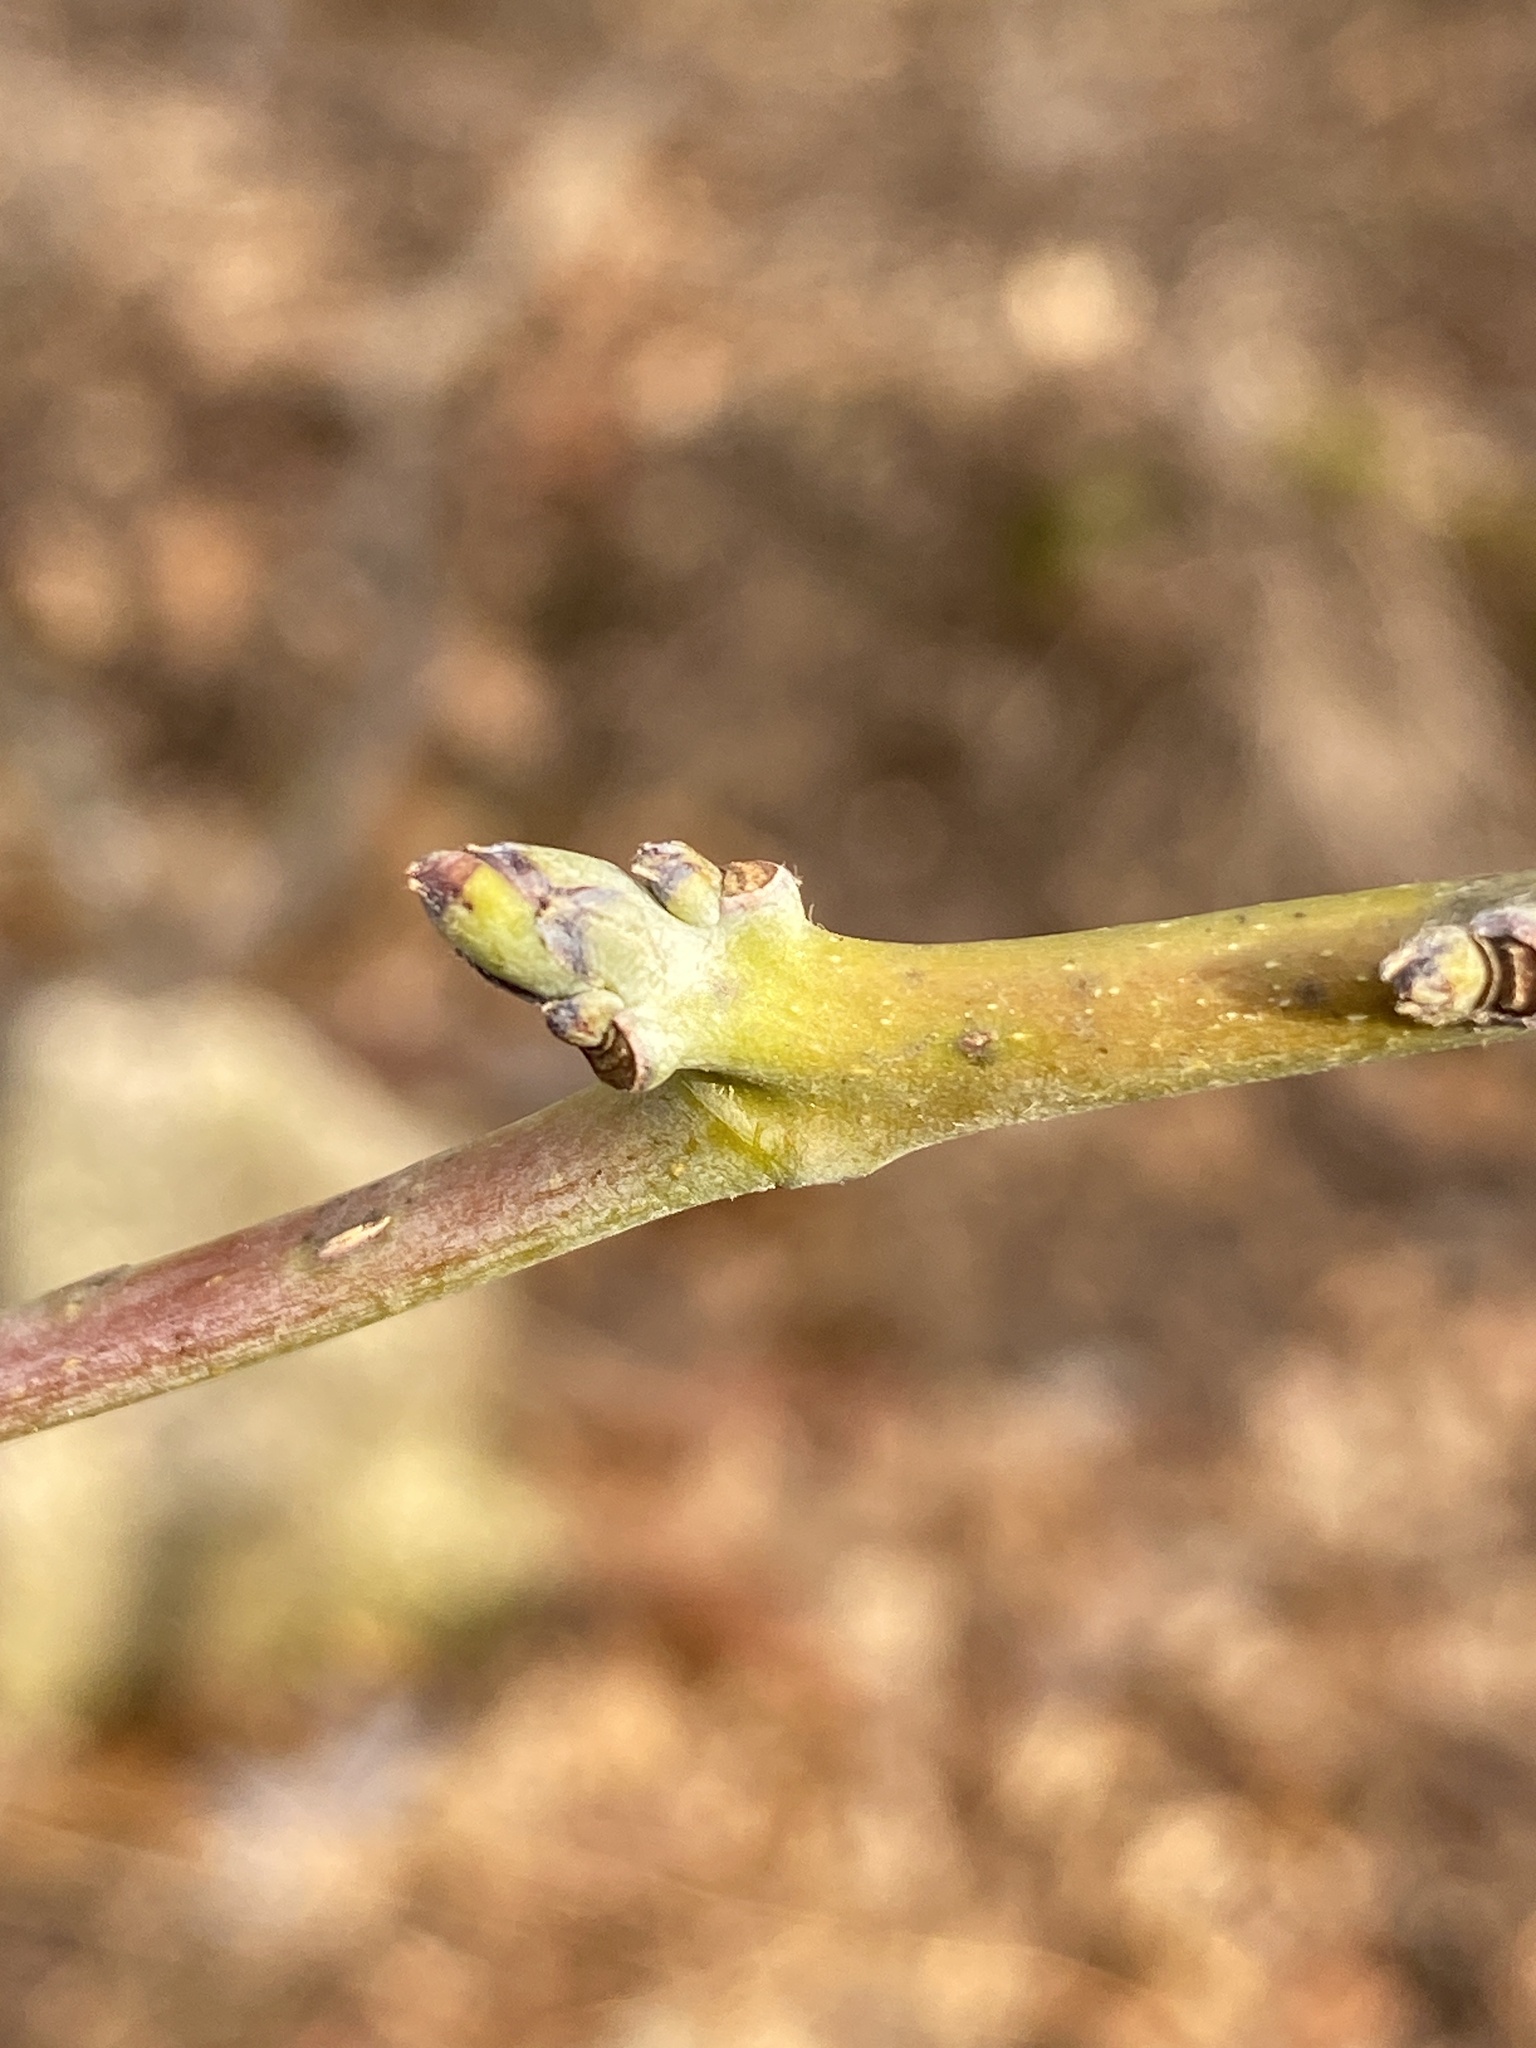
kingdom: Plantae
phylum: Tracheophyta
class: Magnoliopsida
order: Laurales
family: Lauraceae
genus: Sassafras
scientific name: Sassafras albidum
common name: Sassafras
